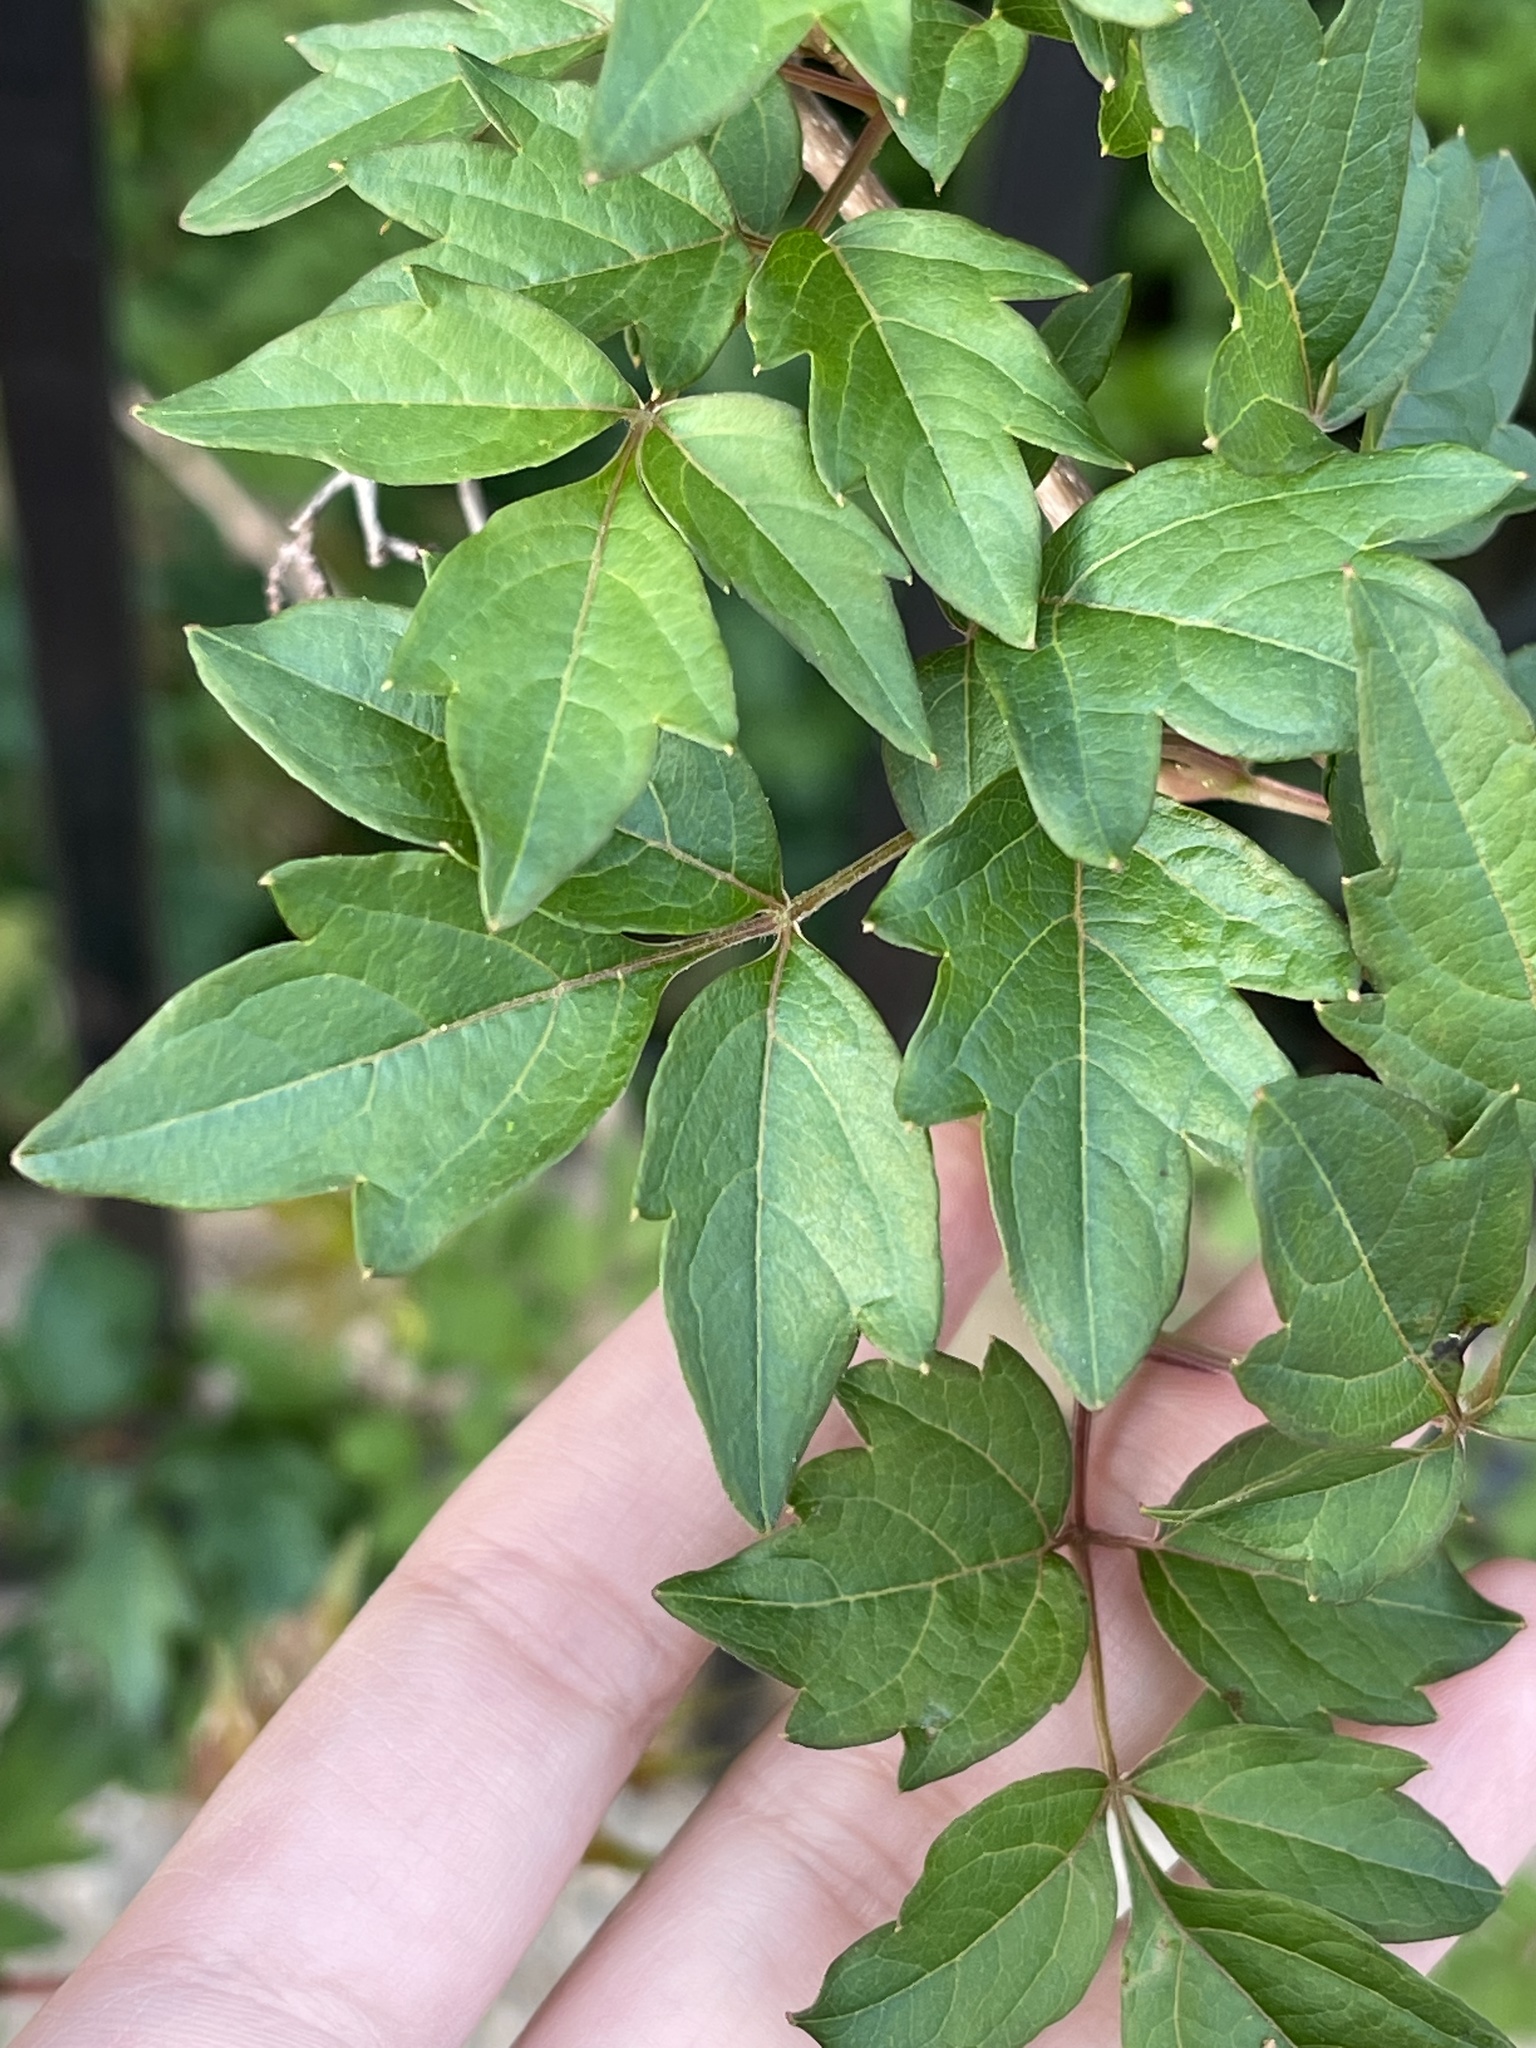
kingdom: Plantae
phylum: Tracheophyta
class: Magnoliopsida
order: Vitales
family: Vitaceae
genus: Nekemias
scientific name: Nekemias arborea
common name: Peppervine
